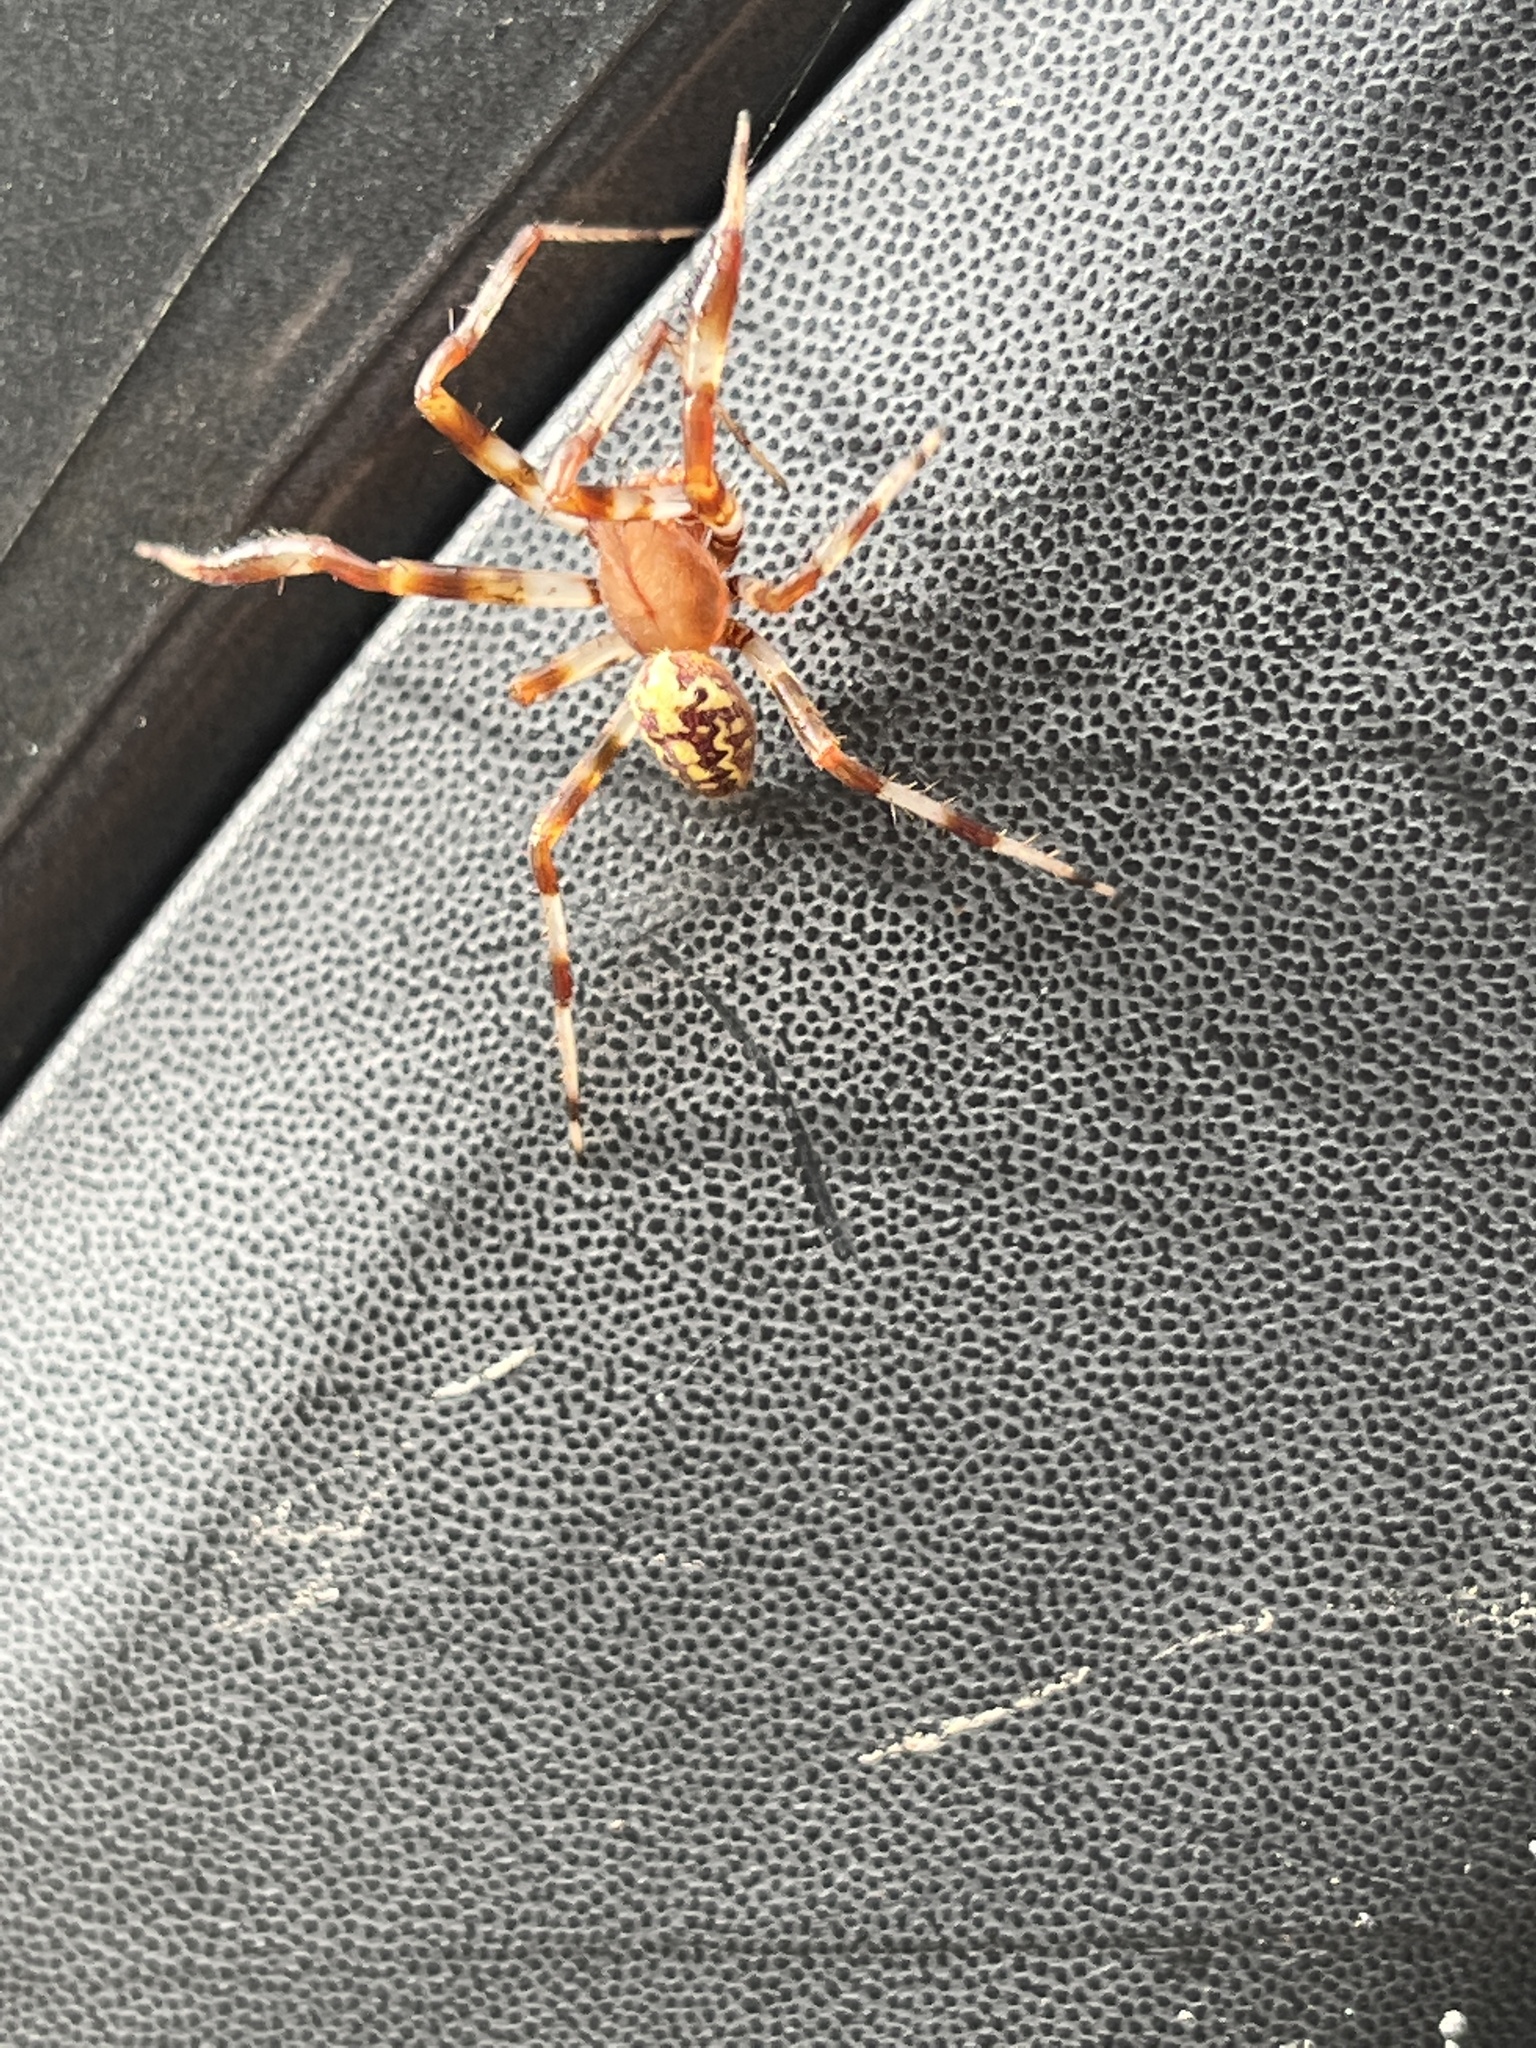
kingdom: Animalia
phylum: Arthropoda
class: Arachnida
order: Araneae
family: Araneidae
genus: Araneus
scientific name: Araneus marmoreus
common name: Marbled orbweaver
